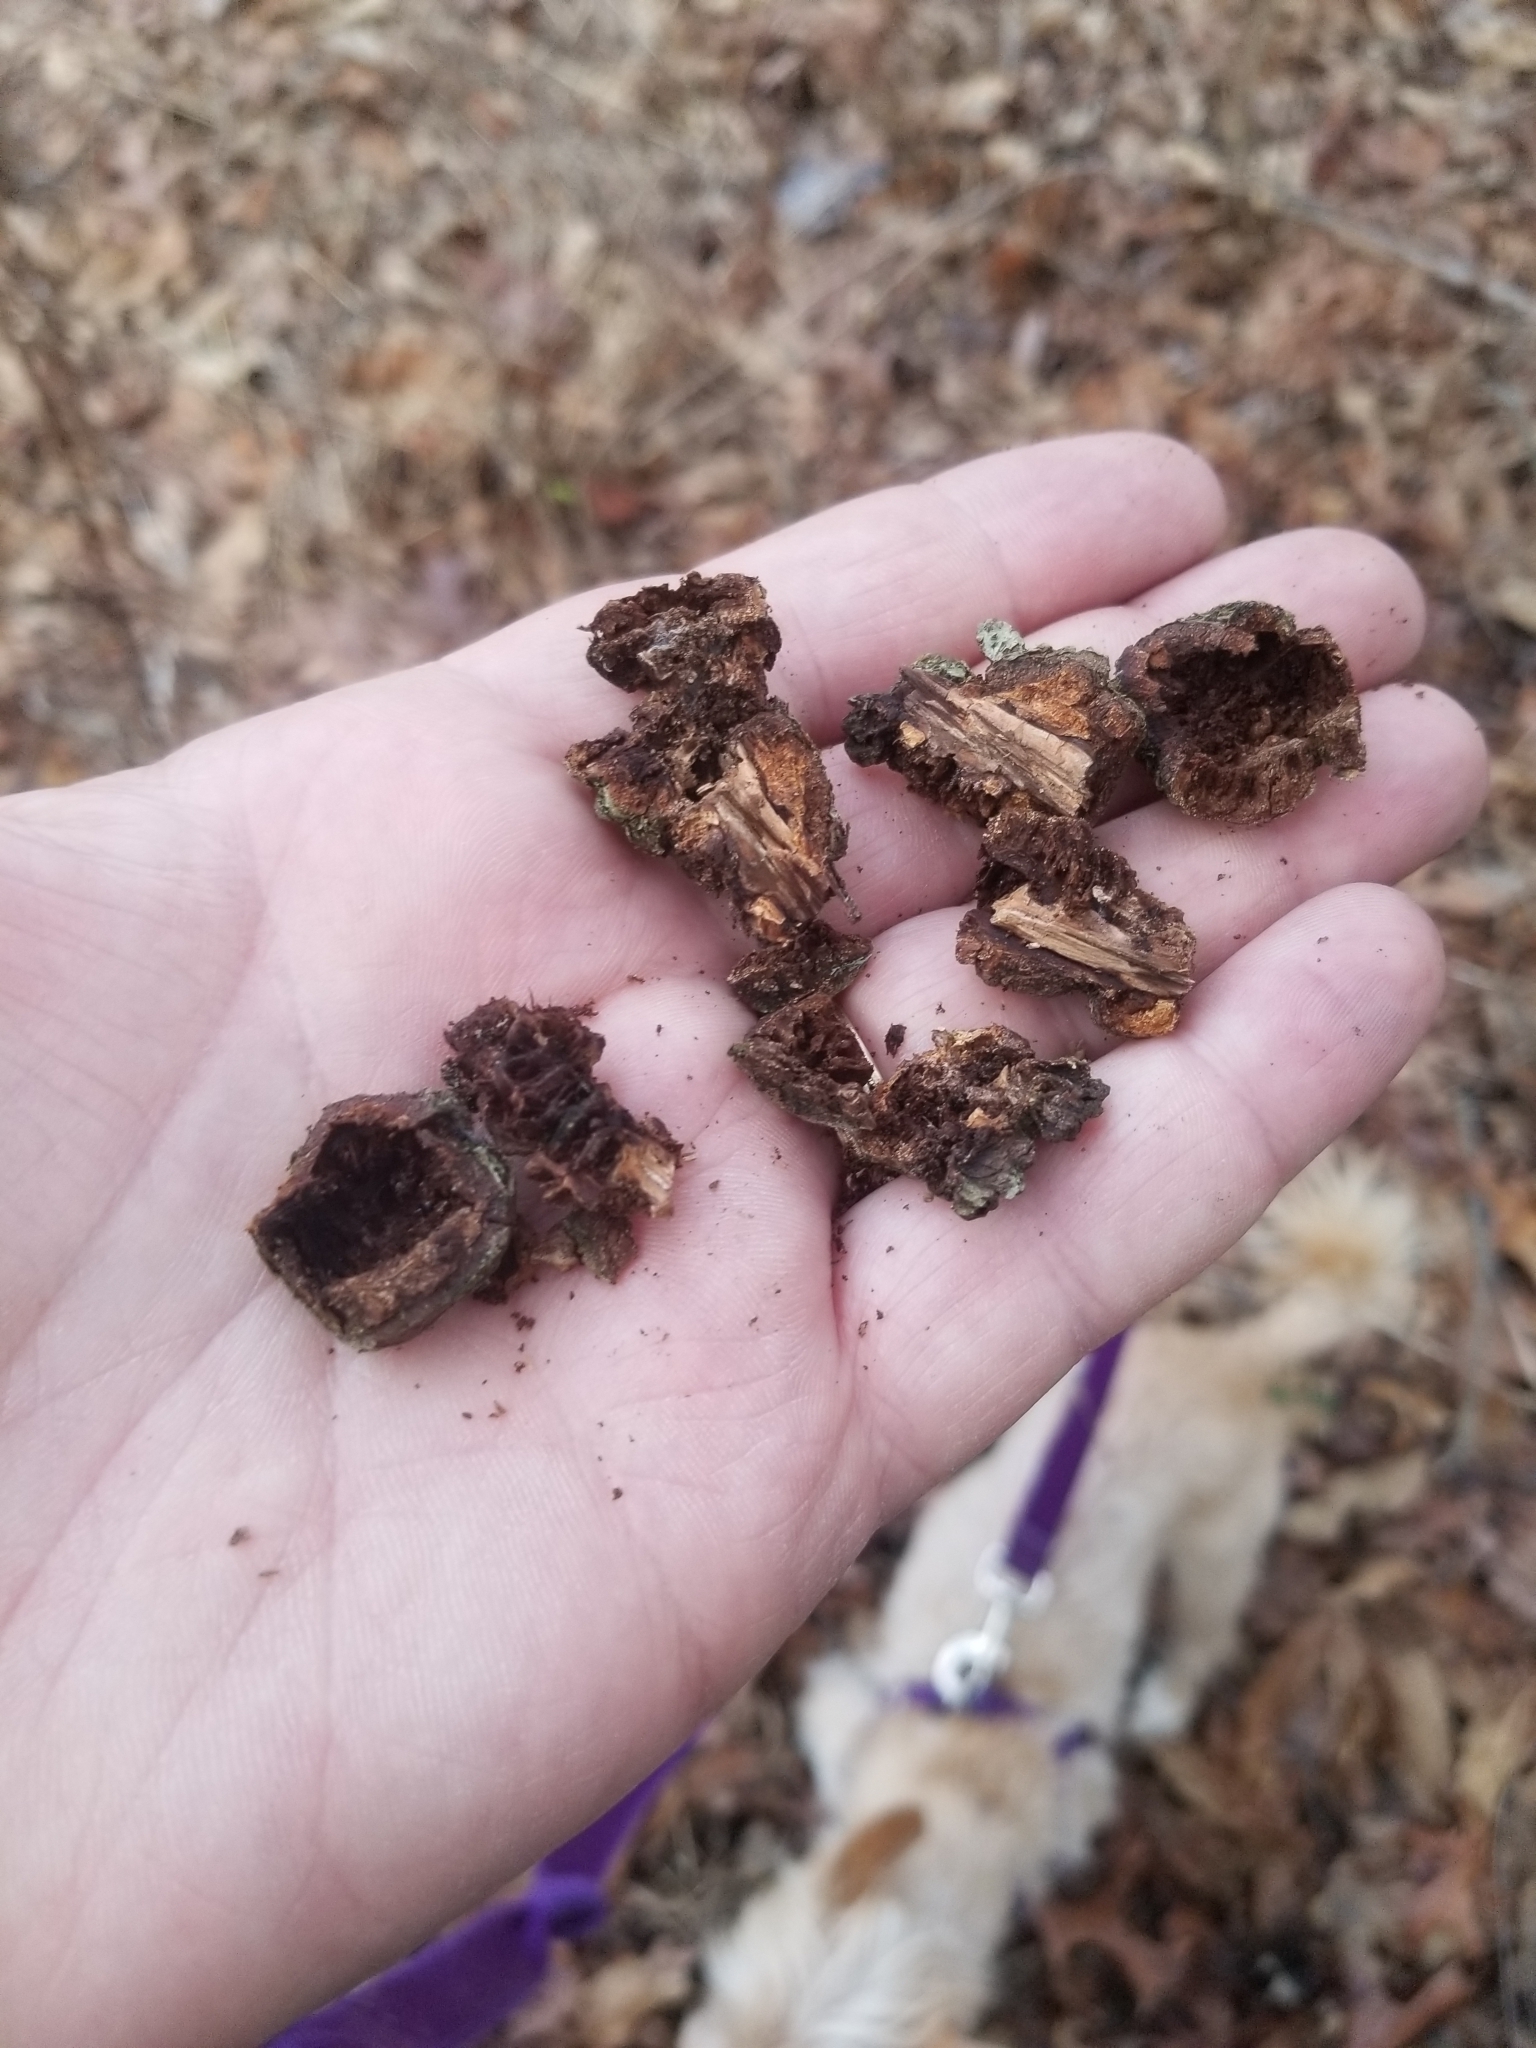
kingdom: Animalia
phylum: Arthropoda
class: Insecta
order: Hymenoptera
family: Cynipidae
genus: Callirhytis
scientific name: Callirhytis
